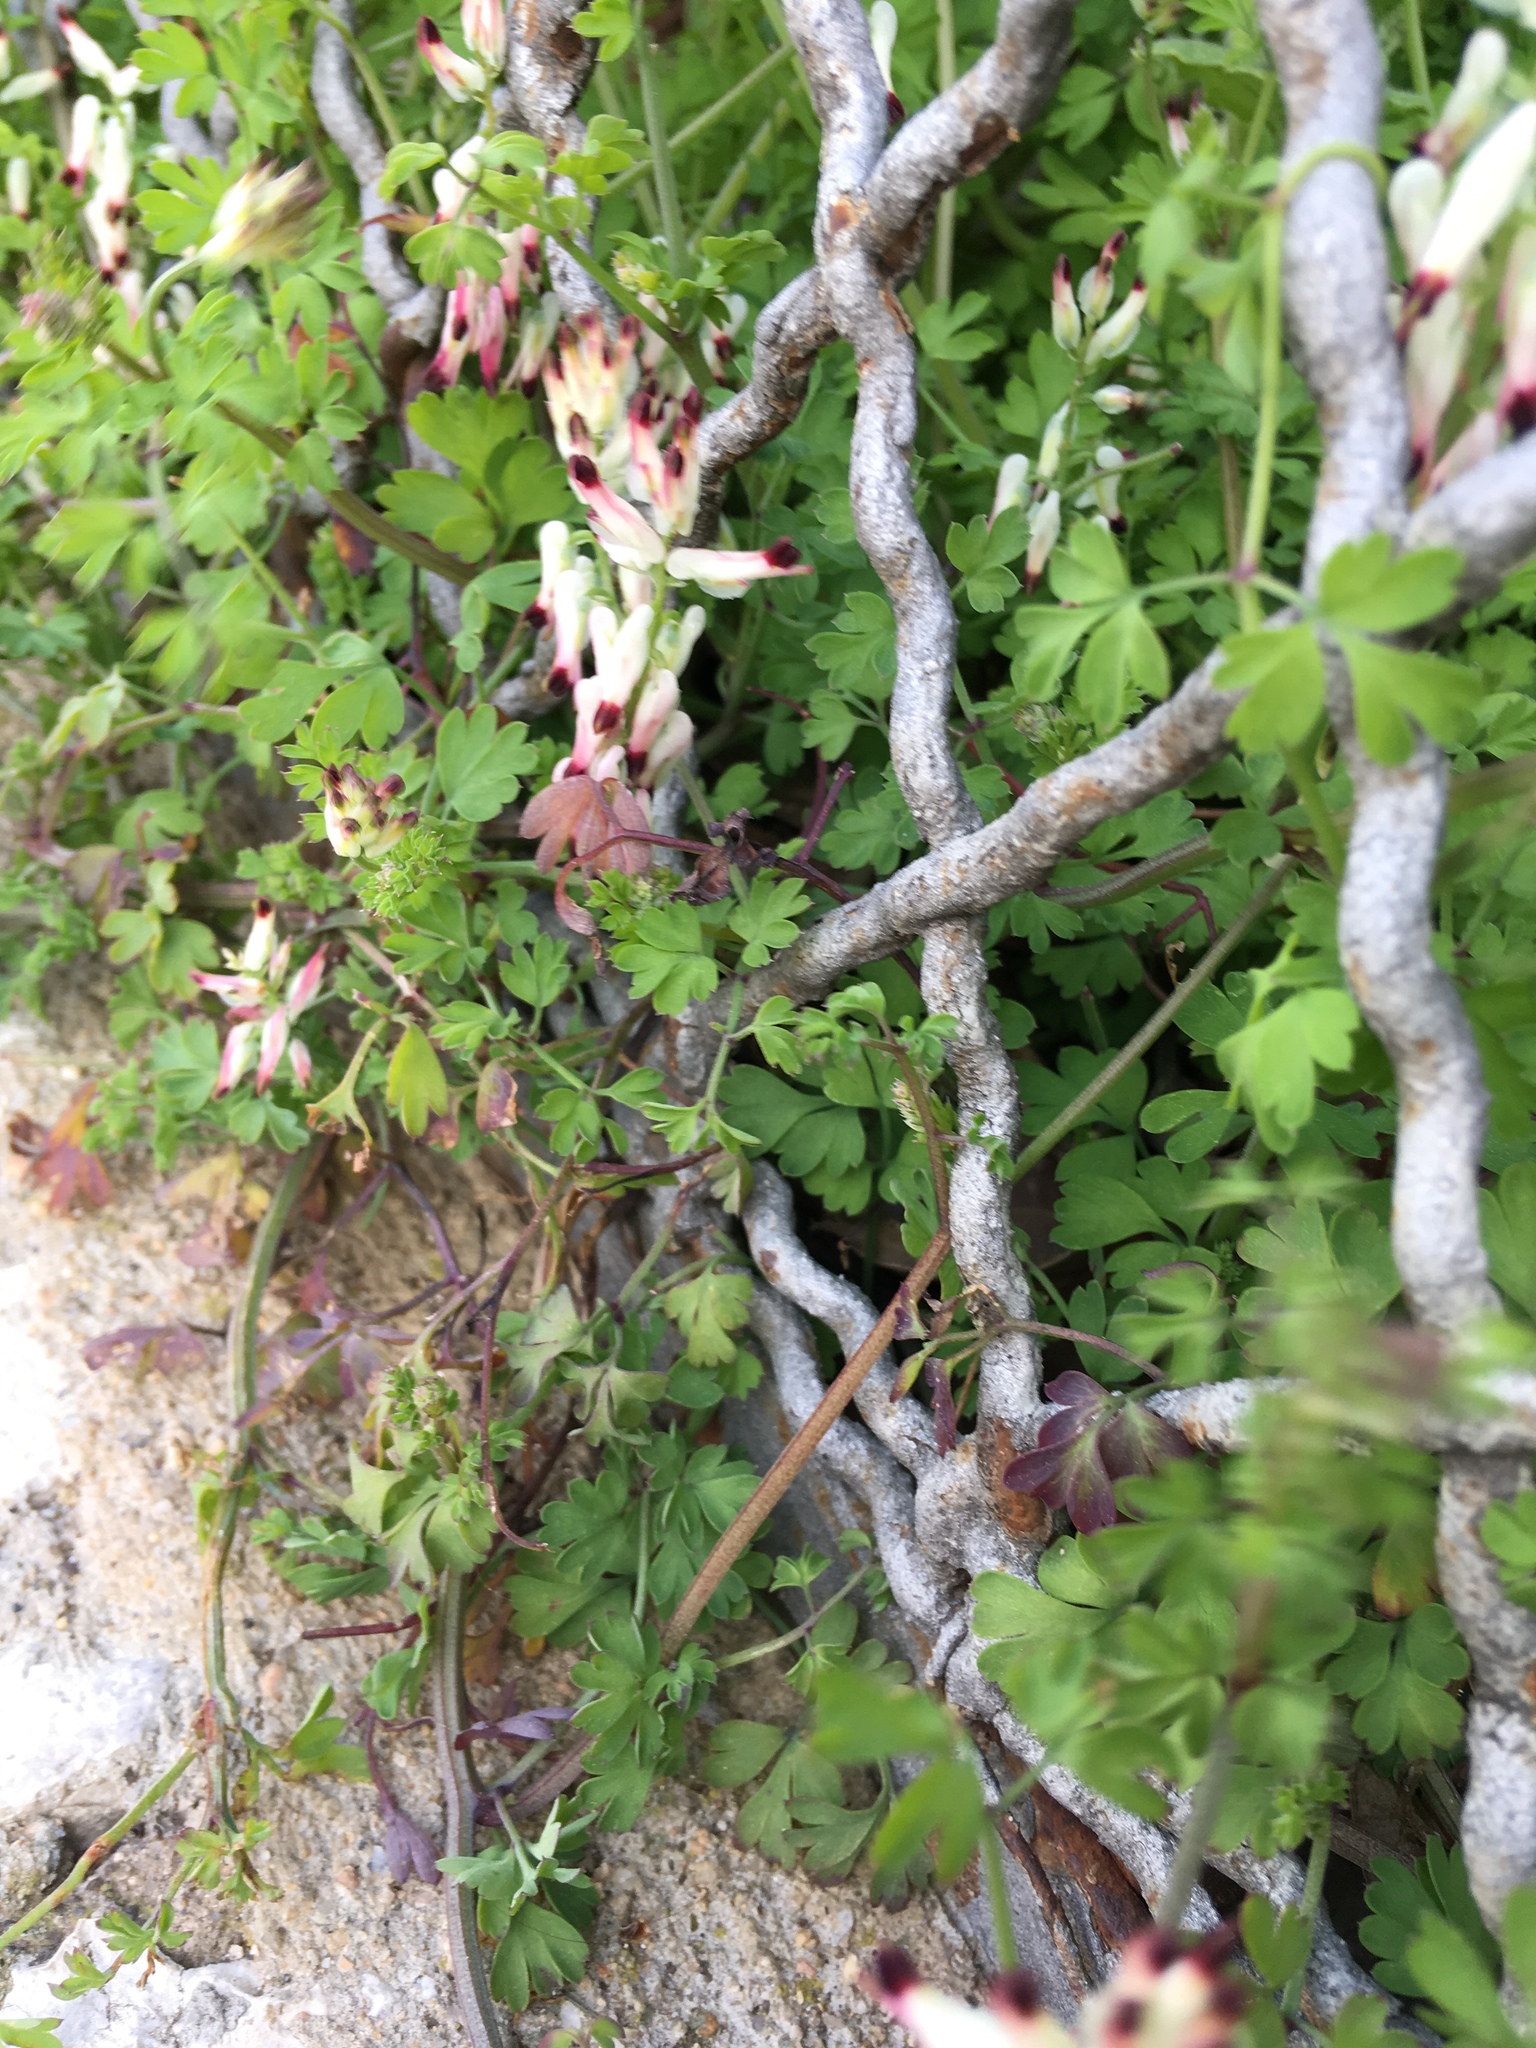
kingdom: Plantae
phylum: Tracheophyta
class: Magnoliopsida
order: Ranunculales
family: Papaveraceae
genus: Fumaria
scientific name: Fumaria capreolata
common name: White ramping-fumitory
